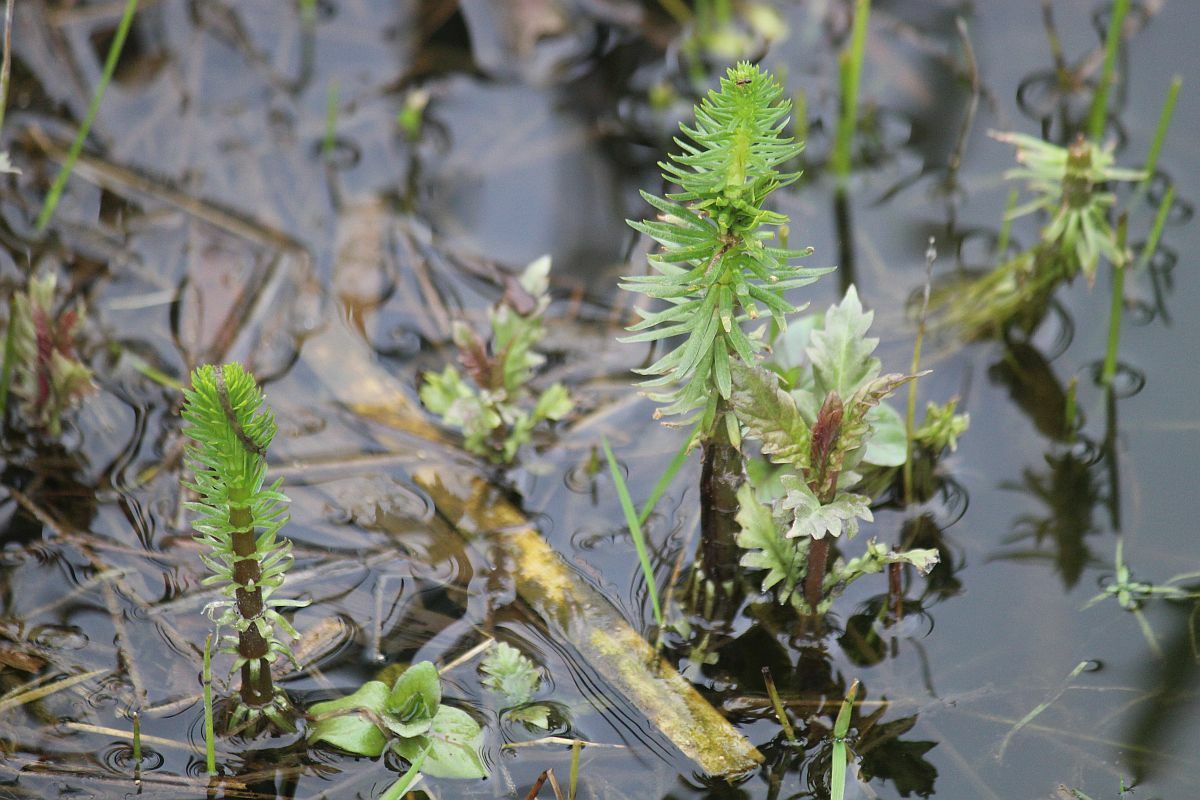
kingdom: Plantae
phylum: Tracheophyta
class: Magnoliopsida
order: Lamiales
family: Plantaginaceae
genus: Hippuris
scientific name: Hippuris vulgaris
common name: Mare's-tail
